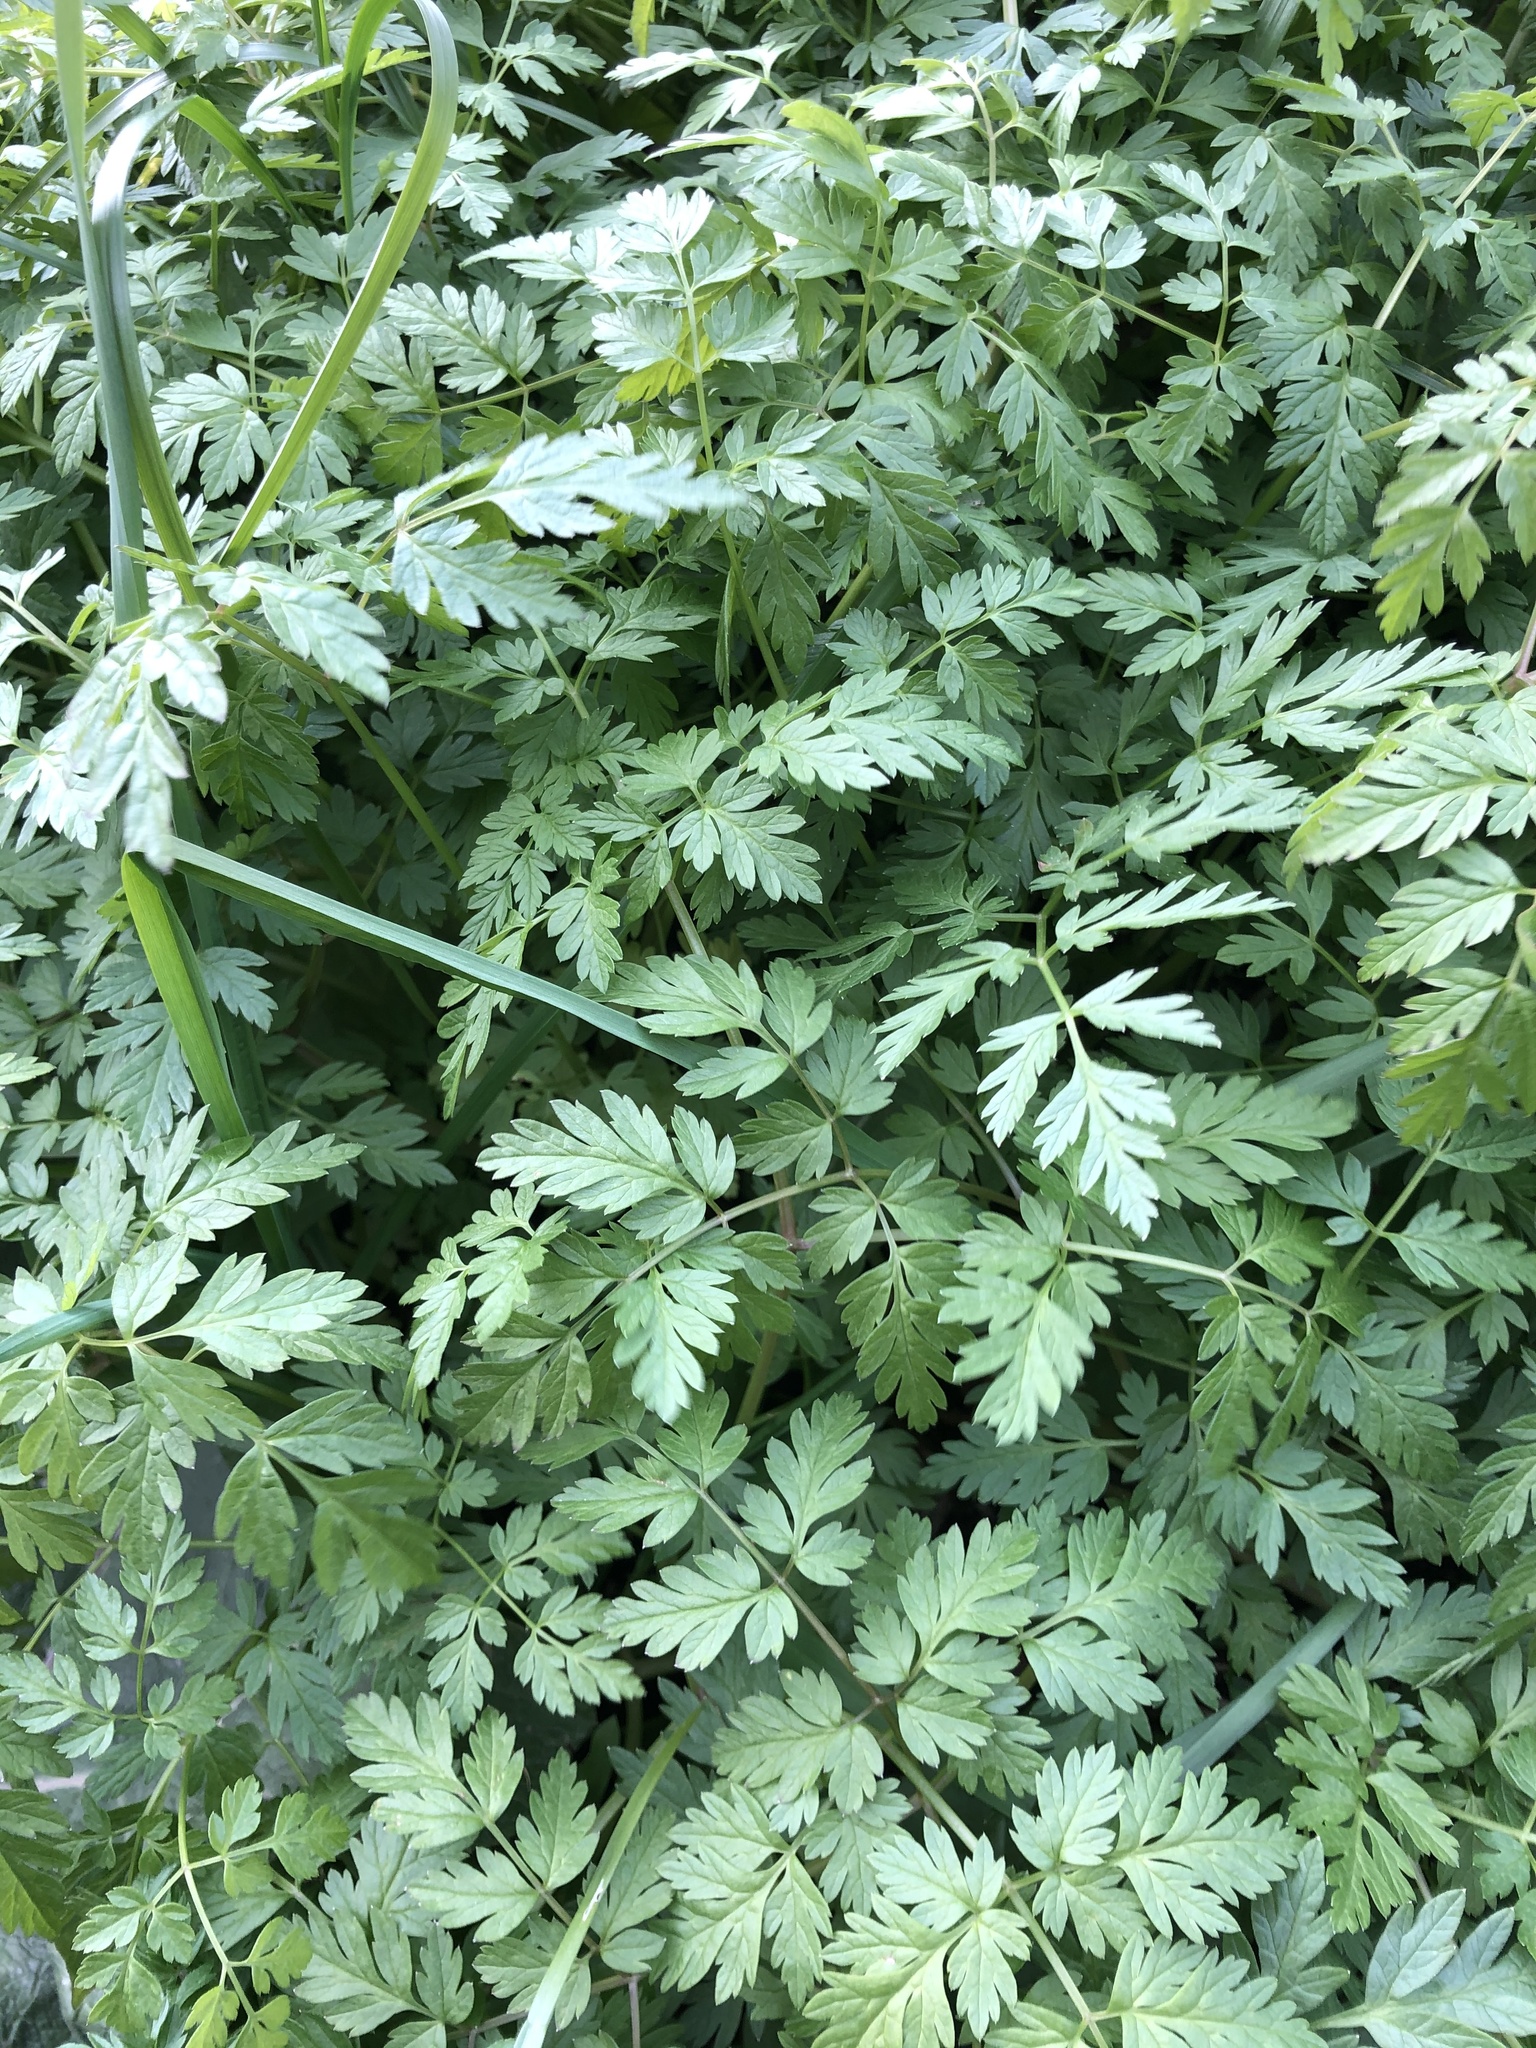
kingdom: Plantae
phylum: Tracheophyta
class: Magnoliopsida
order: Apiales
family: Apiaceae
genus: Anthriscus
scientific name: Anthriscus sylvestris
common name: Cow parsley
